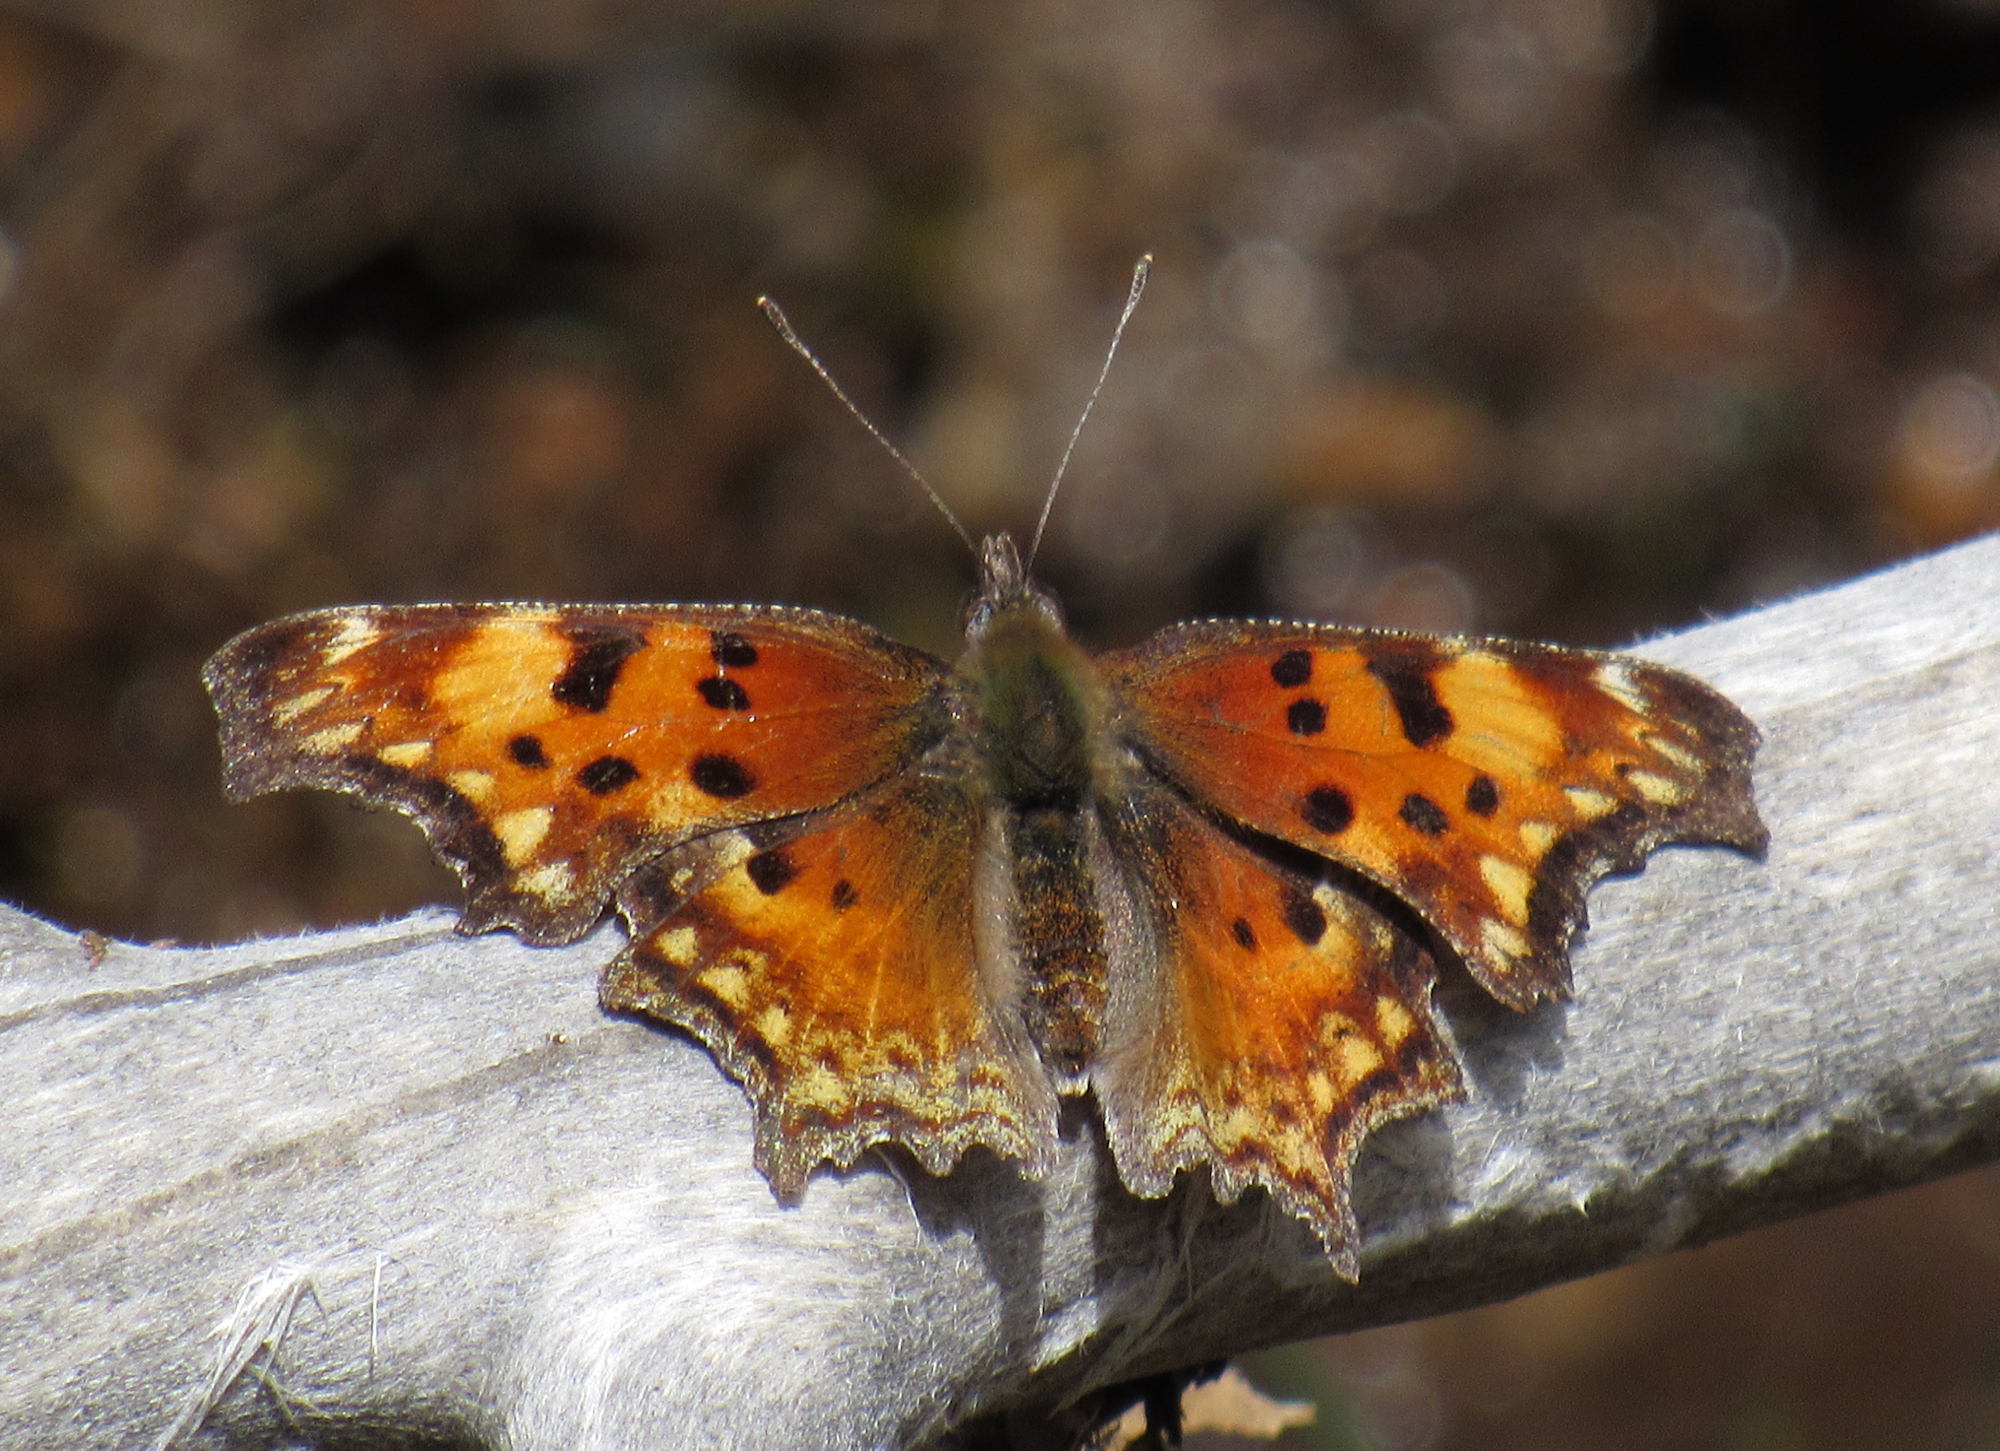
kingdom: Animalia
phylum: Arthropoda
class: Insecta
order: Lepidoptera
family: Nymphalidae
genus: Polygonia
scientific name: Polygonia gracilis
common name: Hoary comma
